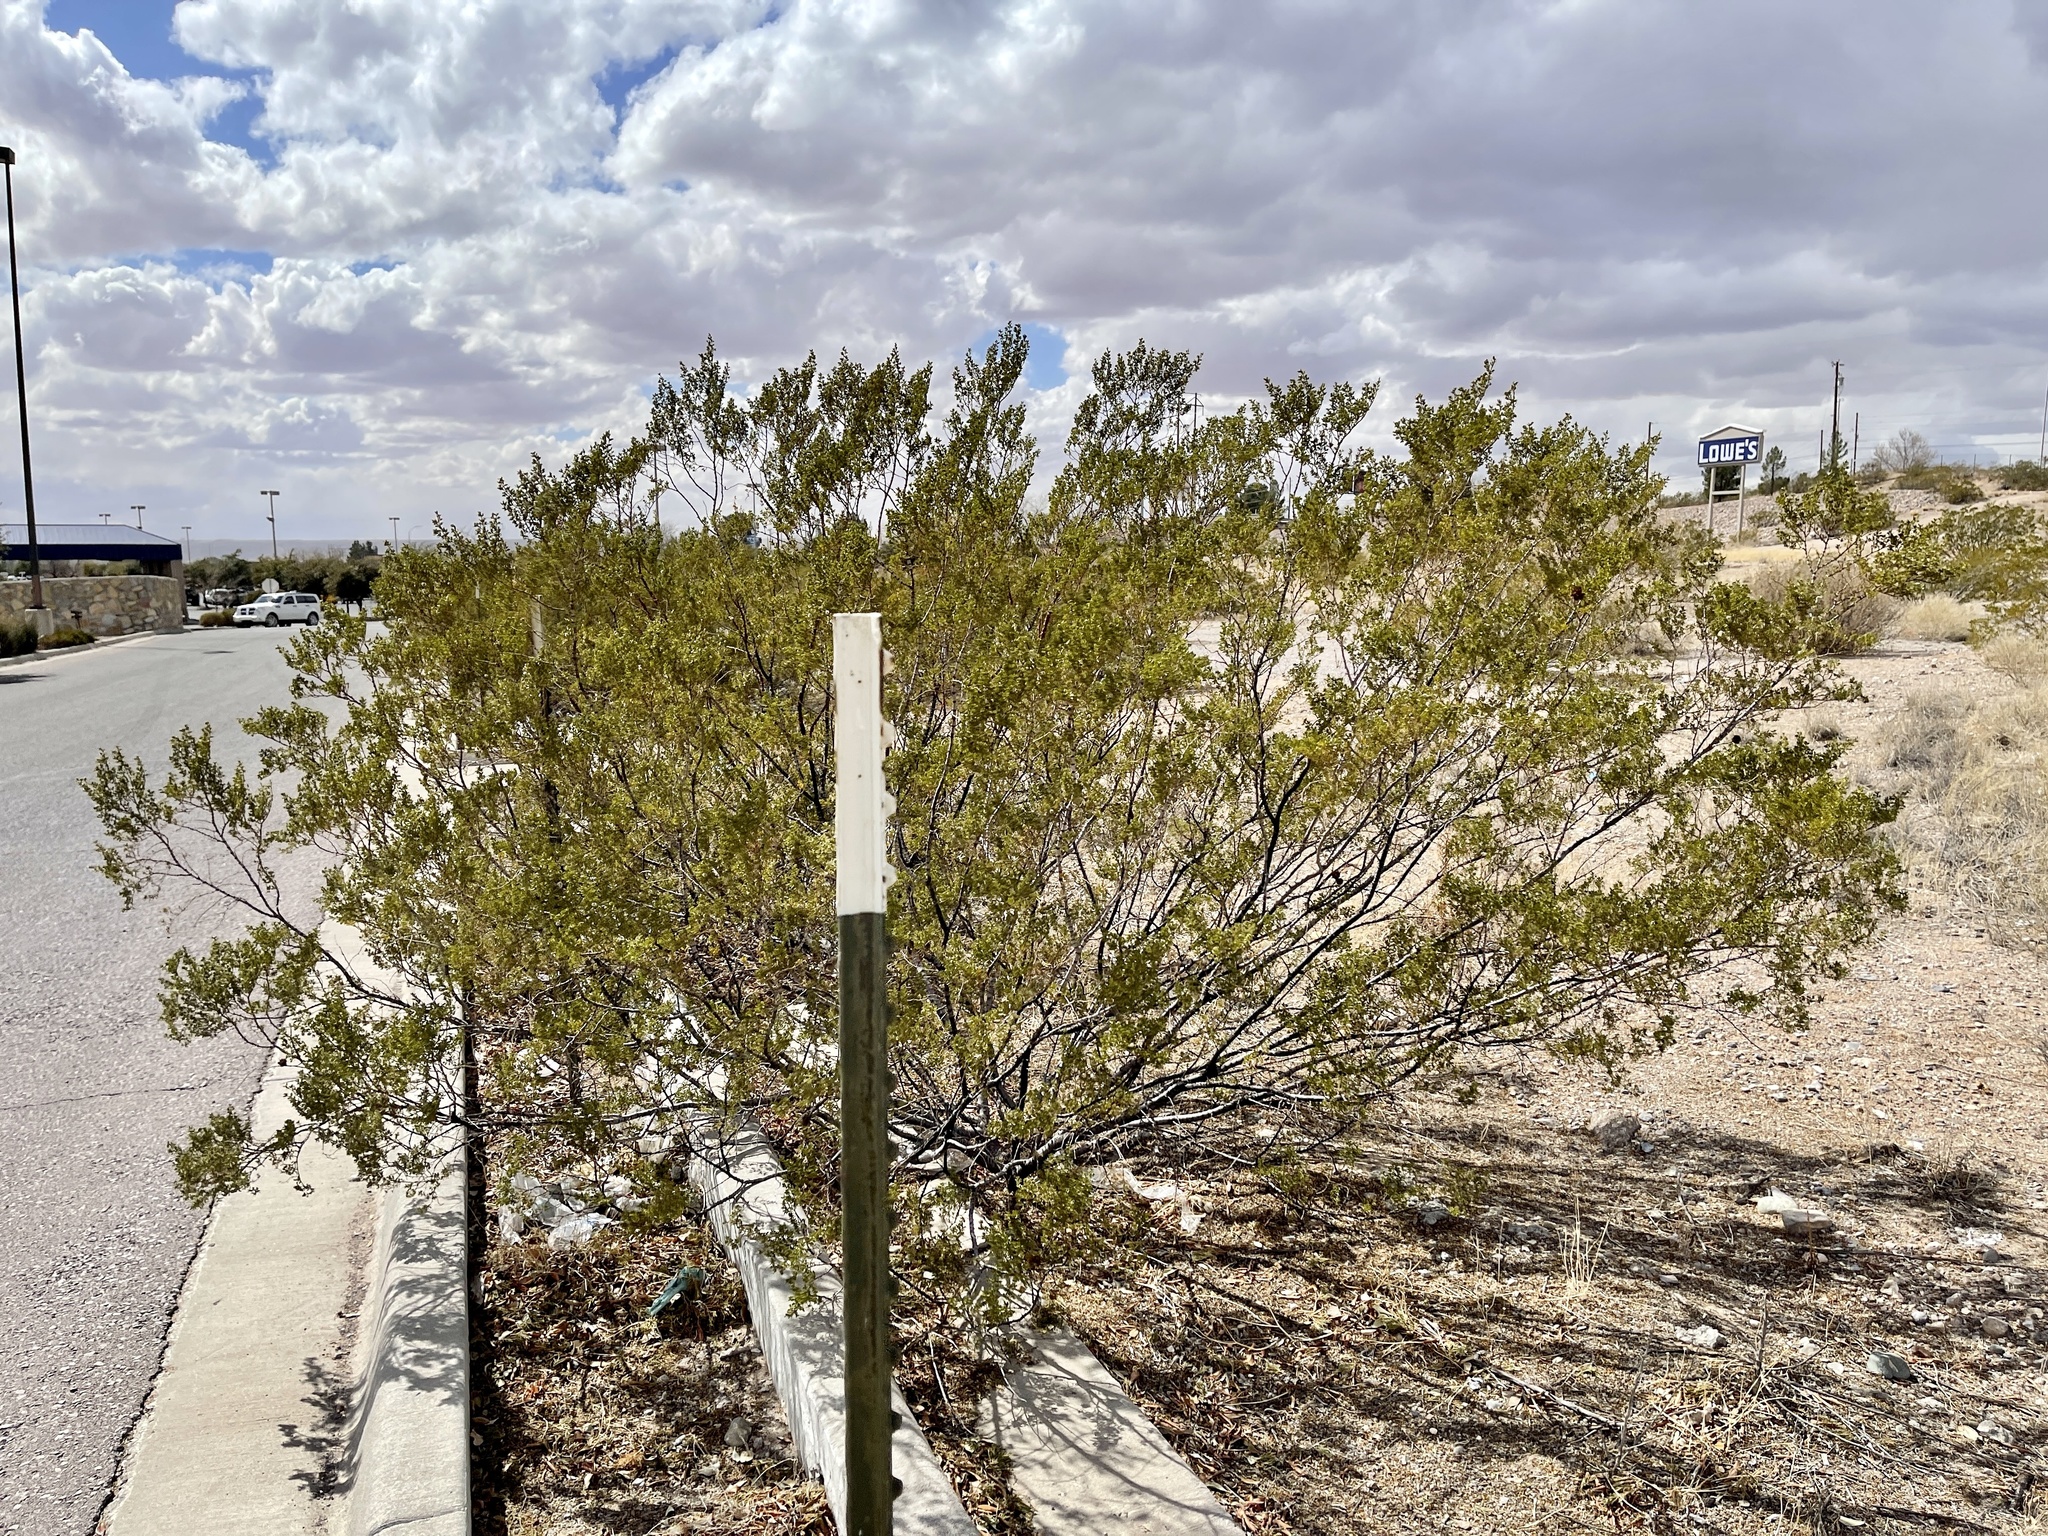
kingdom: Plantae
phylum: Tracheophyta
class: Magnoliopsida
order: Zygophyllales
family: Zygophyllaceae
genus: Larrea
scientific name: Larrea tridentata
